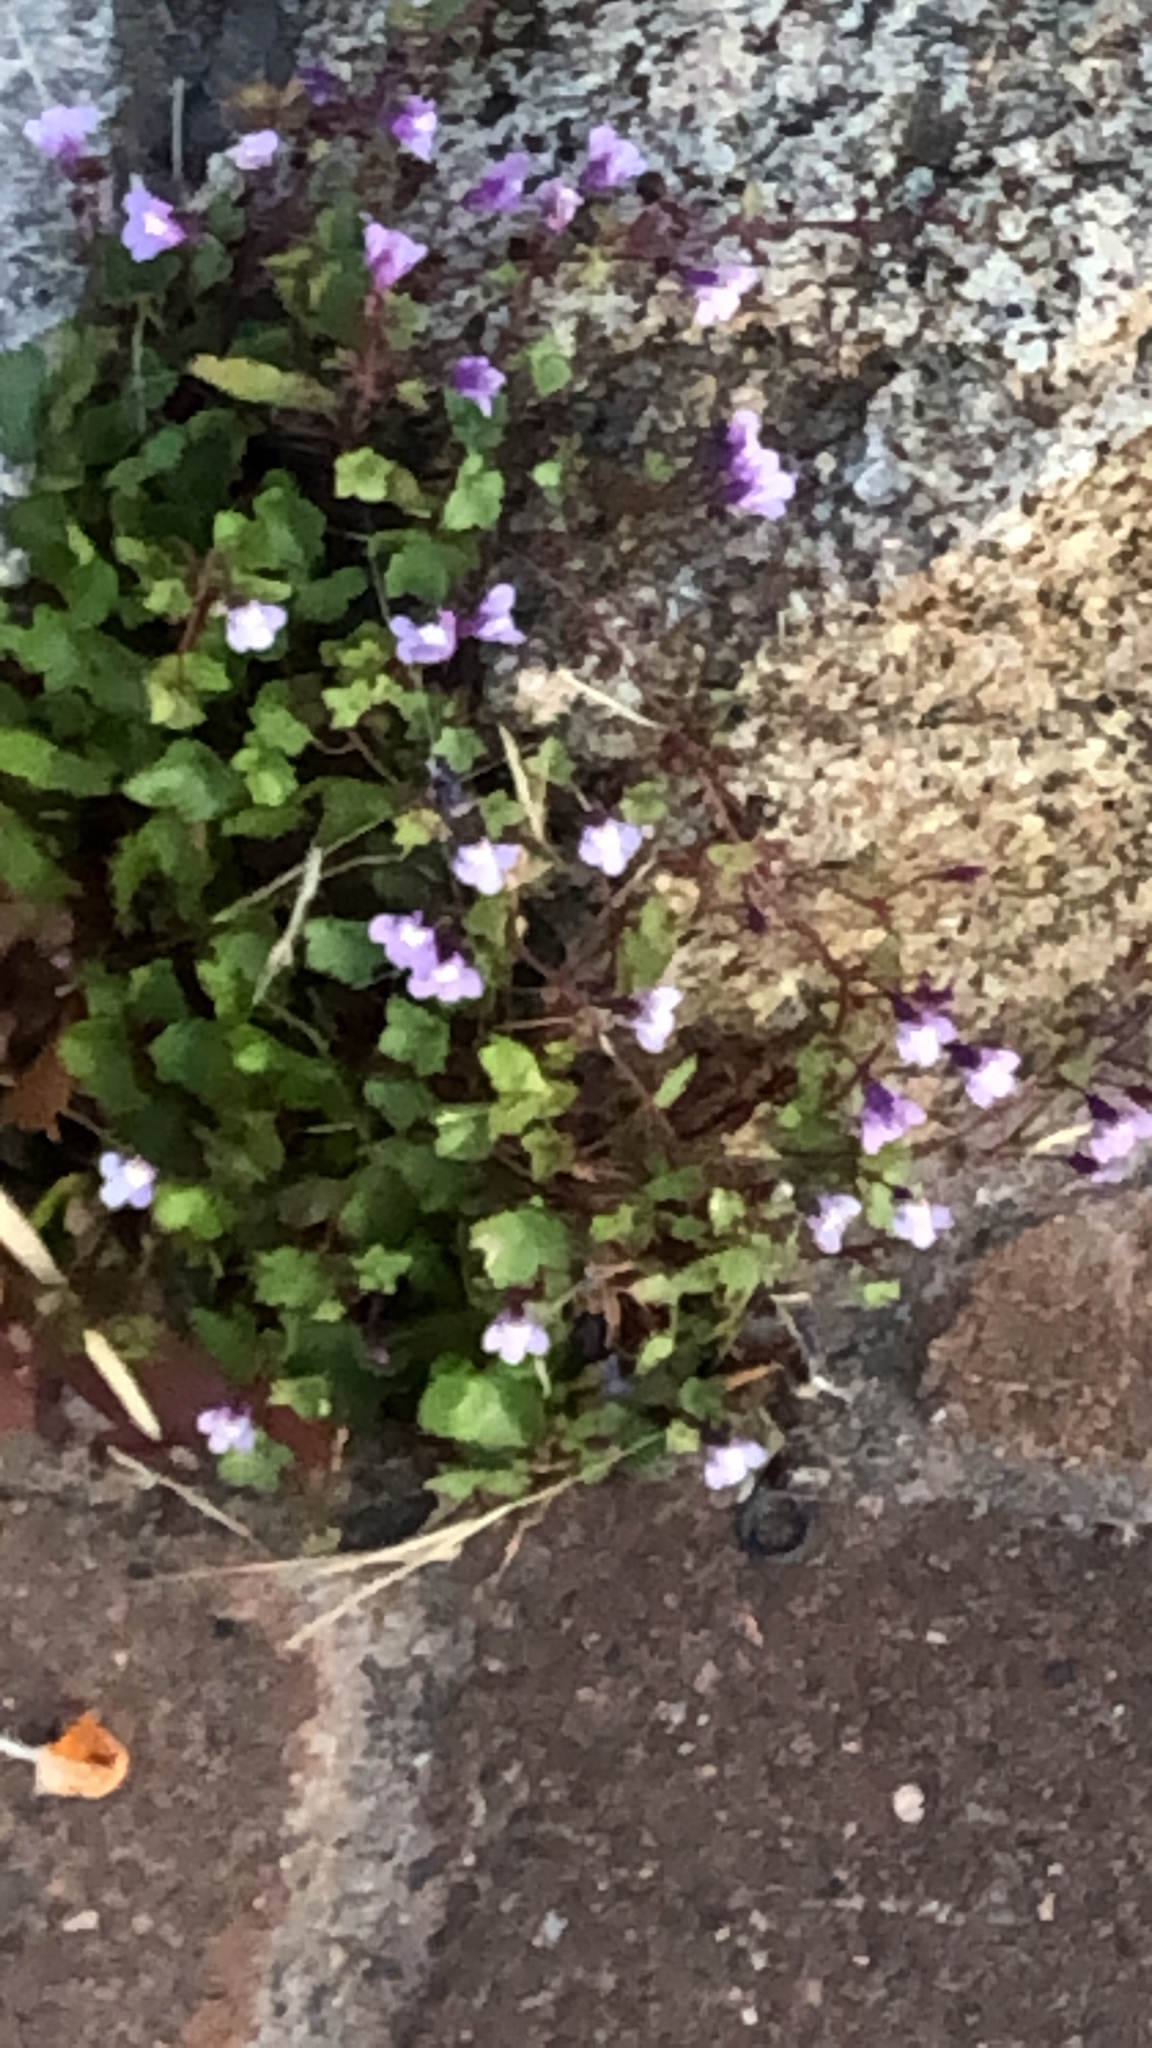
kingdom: Plantae
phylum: Tracheophyta
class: Magnoliopsida
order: Lamiales
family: Plantaginaceae
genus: Cymbalaria
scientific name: Cymbalaria muralis
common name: Ivy-leaved toadflax
